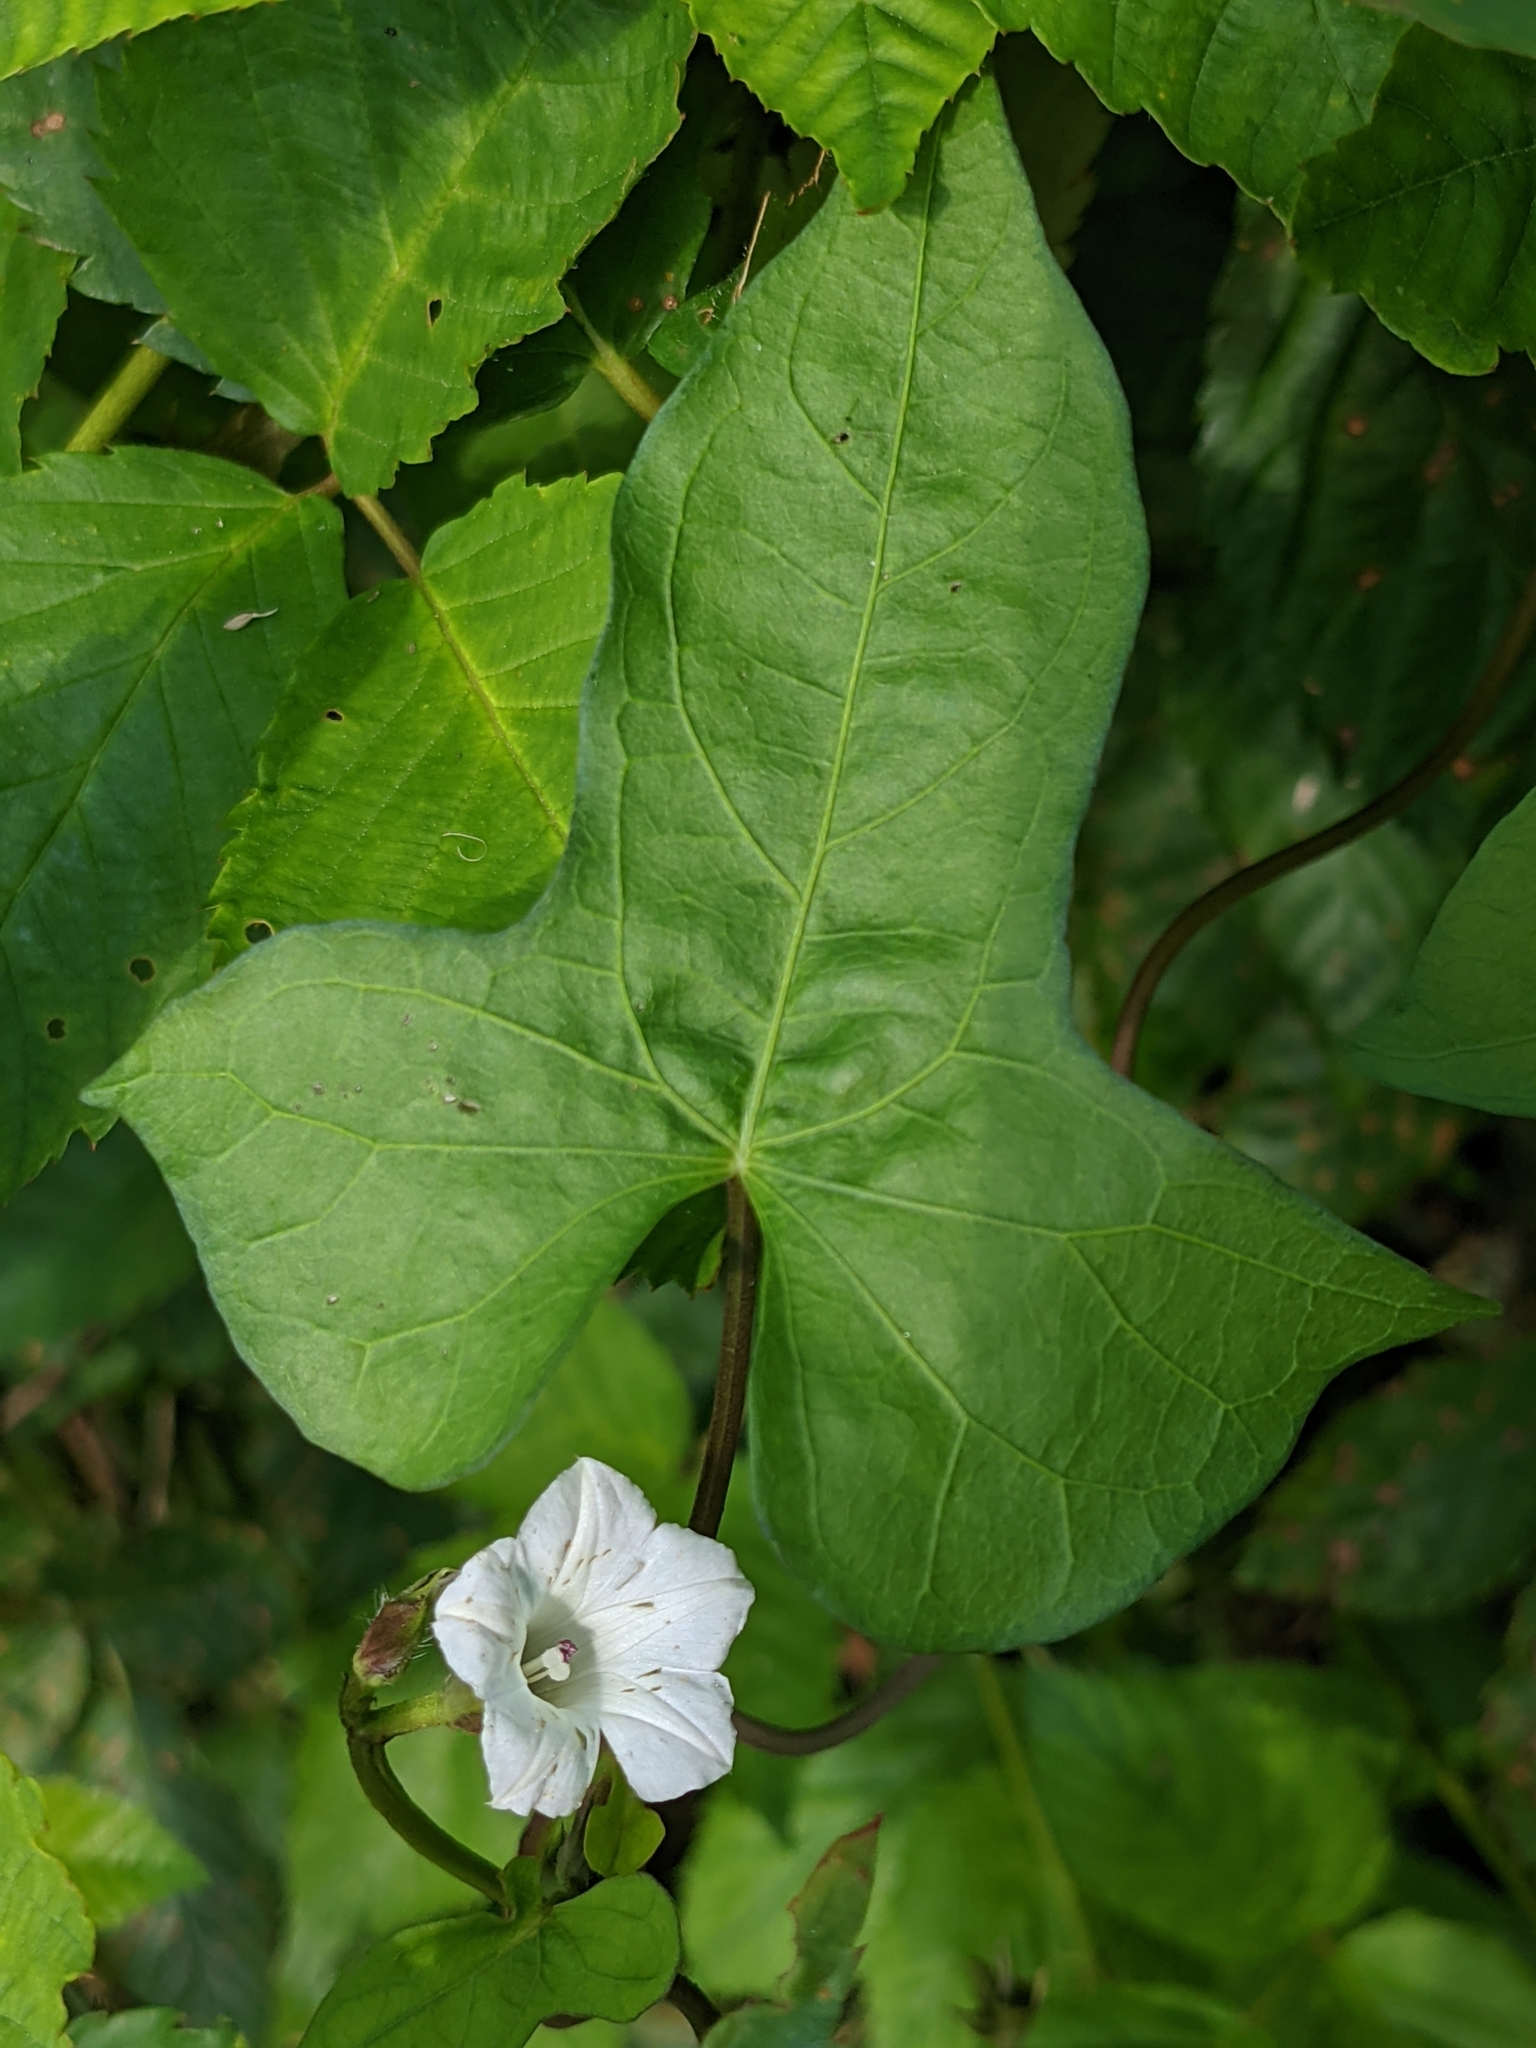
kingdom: Plantae
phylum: Tracheophyta
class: Magnoliopsida
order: Solanales
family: Convolvulaceae
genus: Ipomoea
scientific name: Ipomoea lacunosa
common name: White morning-glory
